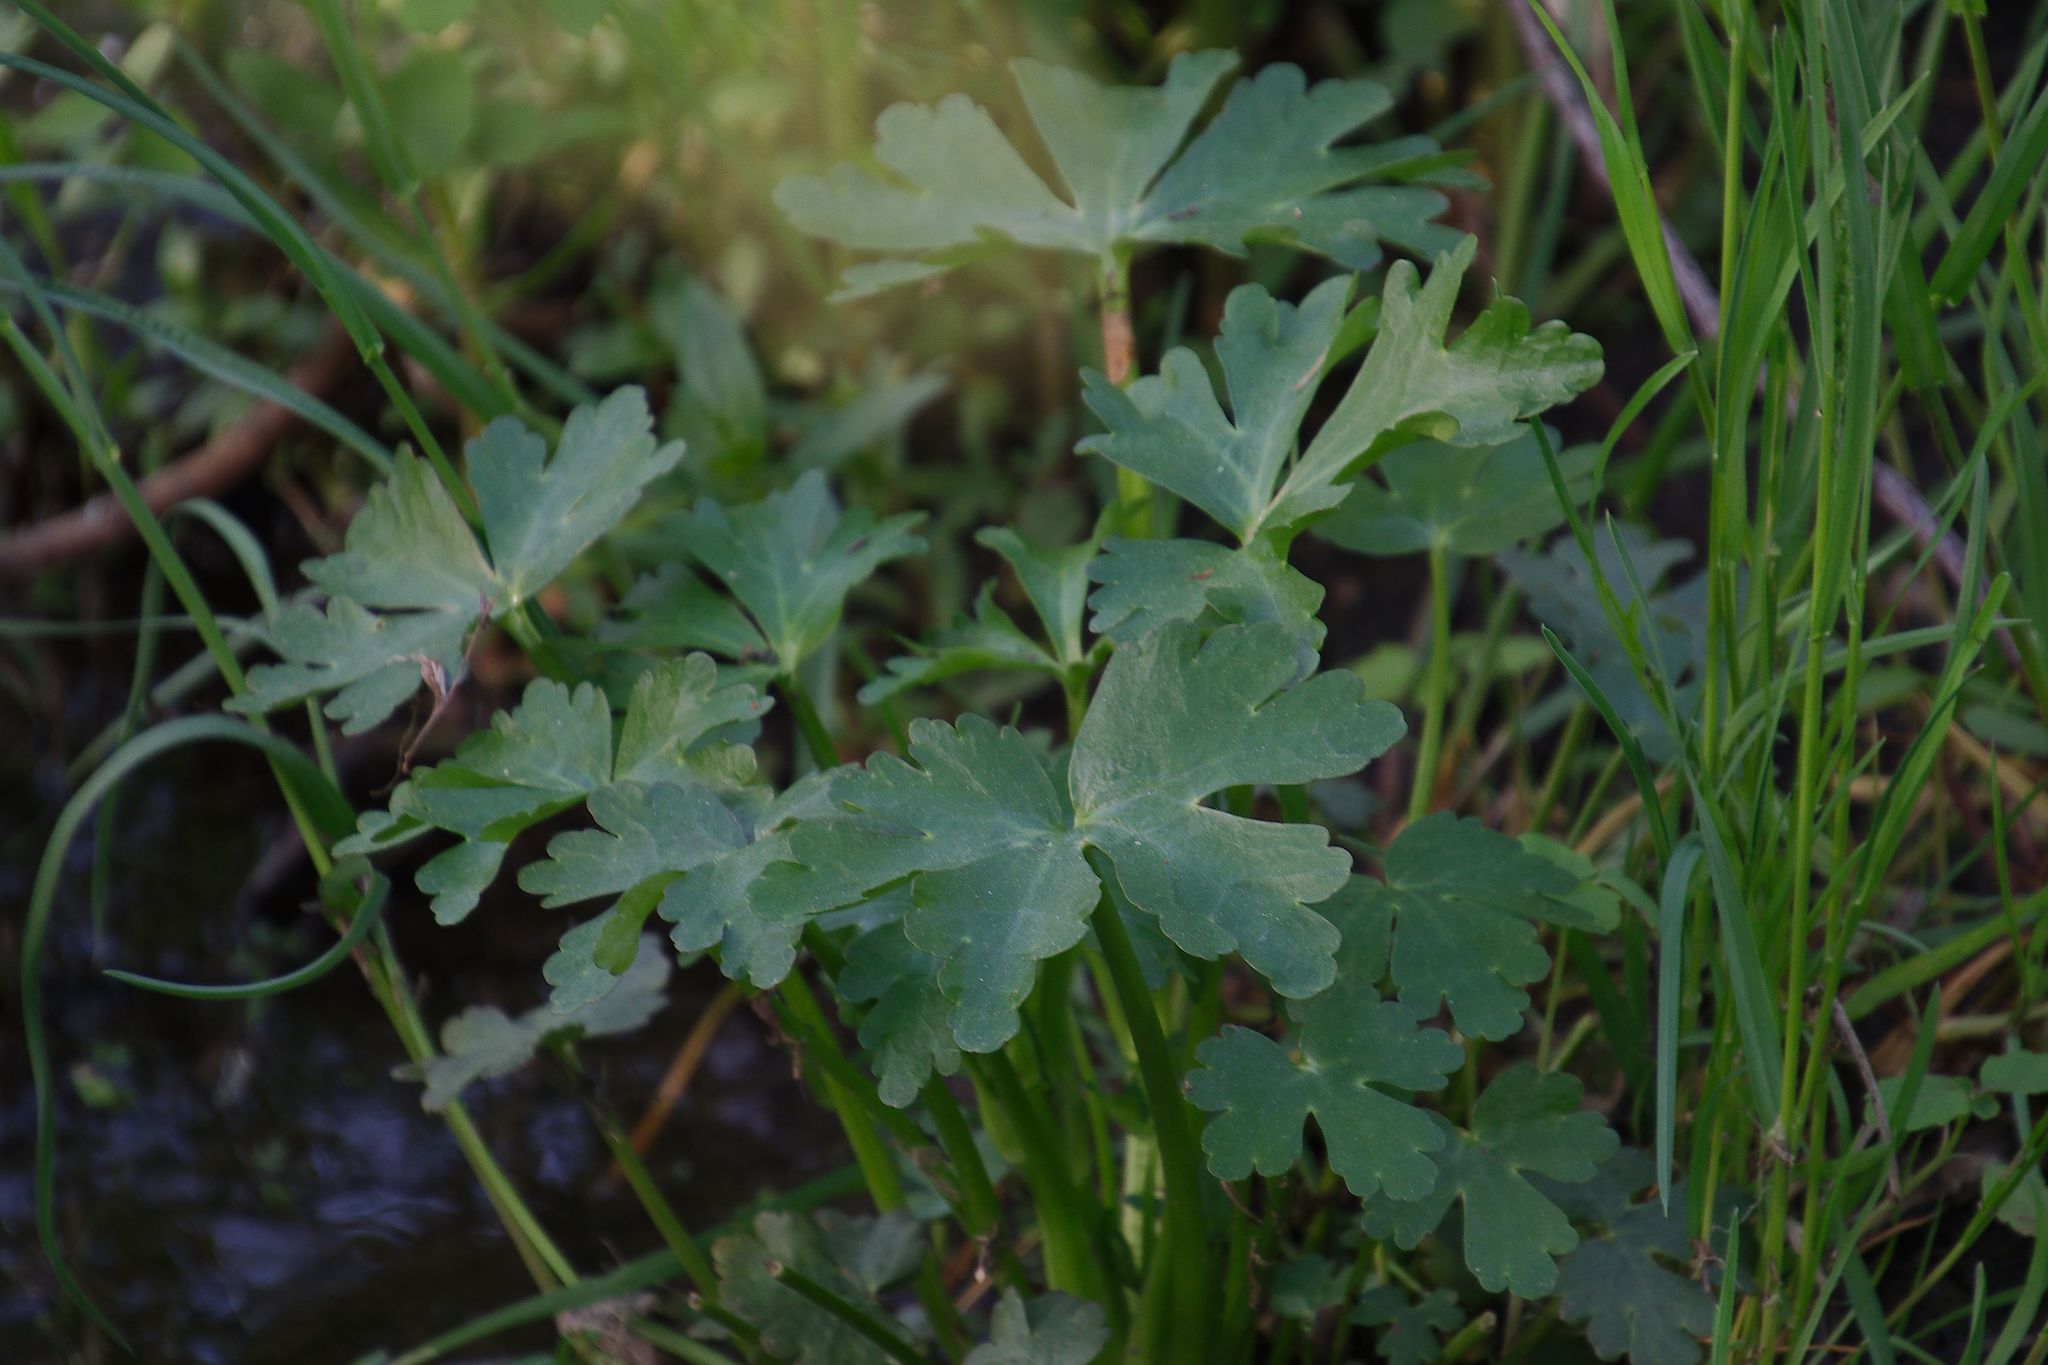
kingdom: Plantae
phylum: Tracheophyta
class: Magnoliopsida
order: Ranunculales
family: Ranunculaceae
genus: Ranunculus
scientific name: Ranunculus sceleratus
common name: Celery-leaved buttercup
